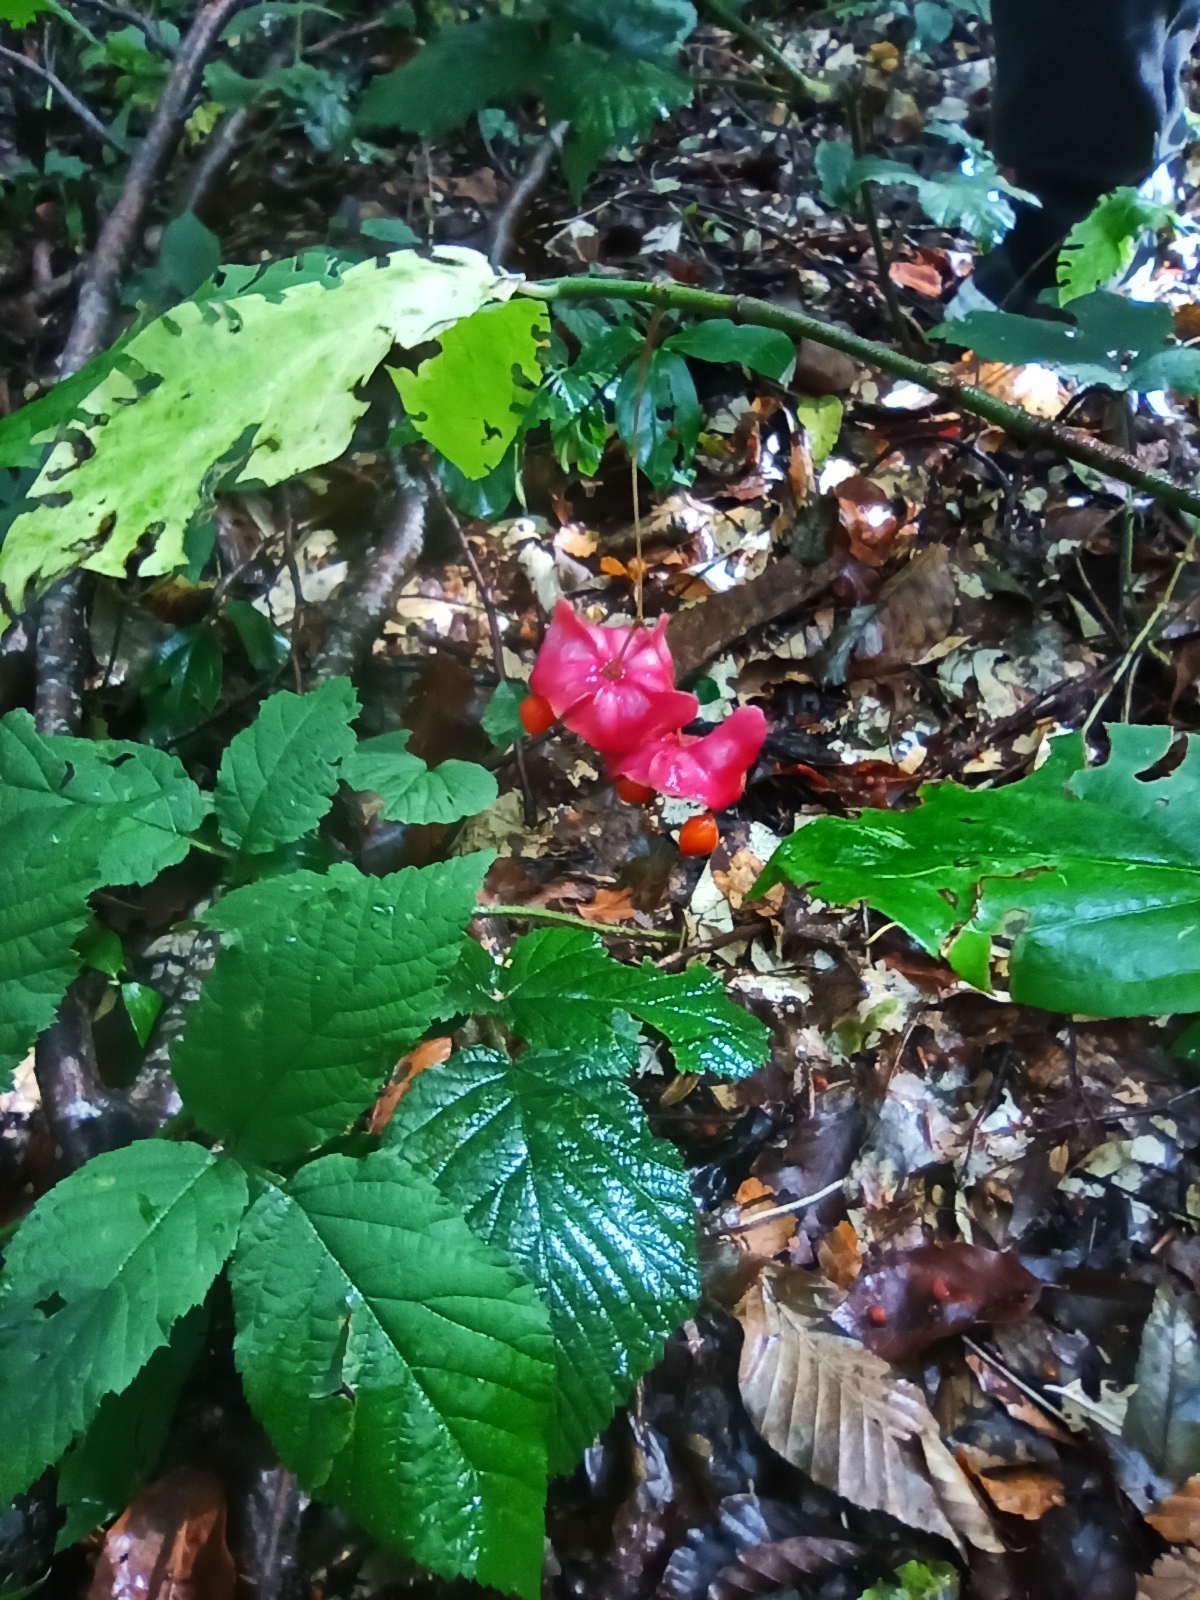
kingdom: Plantae
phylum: Tracheophyta
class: Magnoliopsida
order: Celastrales
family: Celastraceae
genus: Euonymus
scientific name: Euonymus latifolius
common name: Large-leaved spindle
